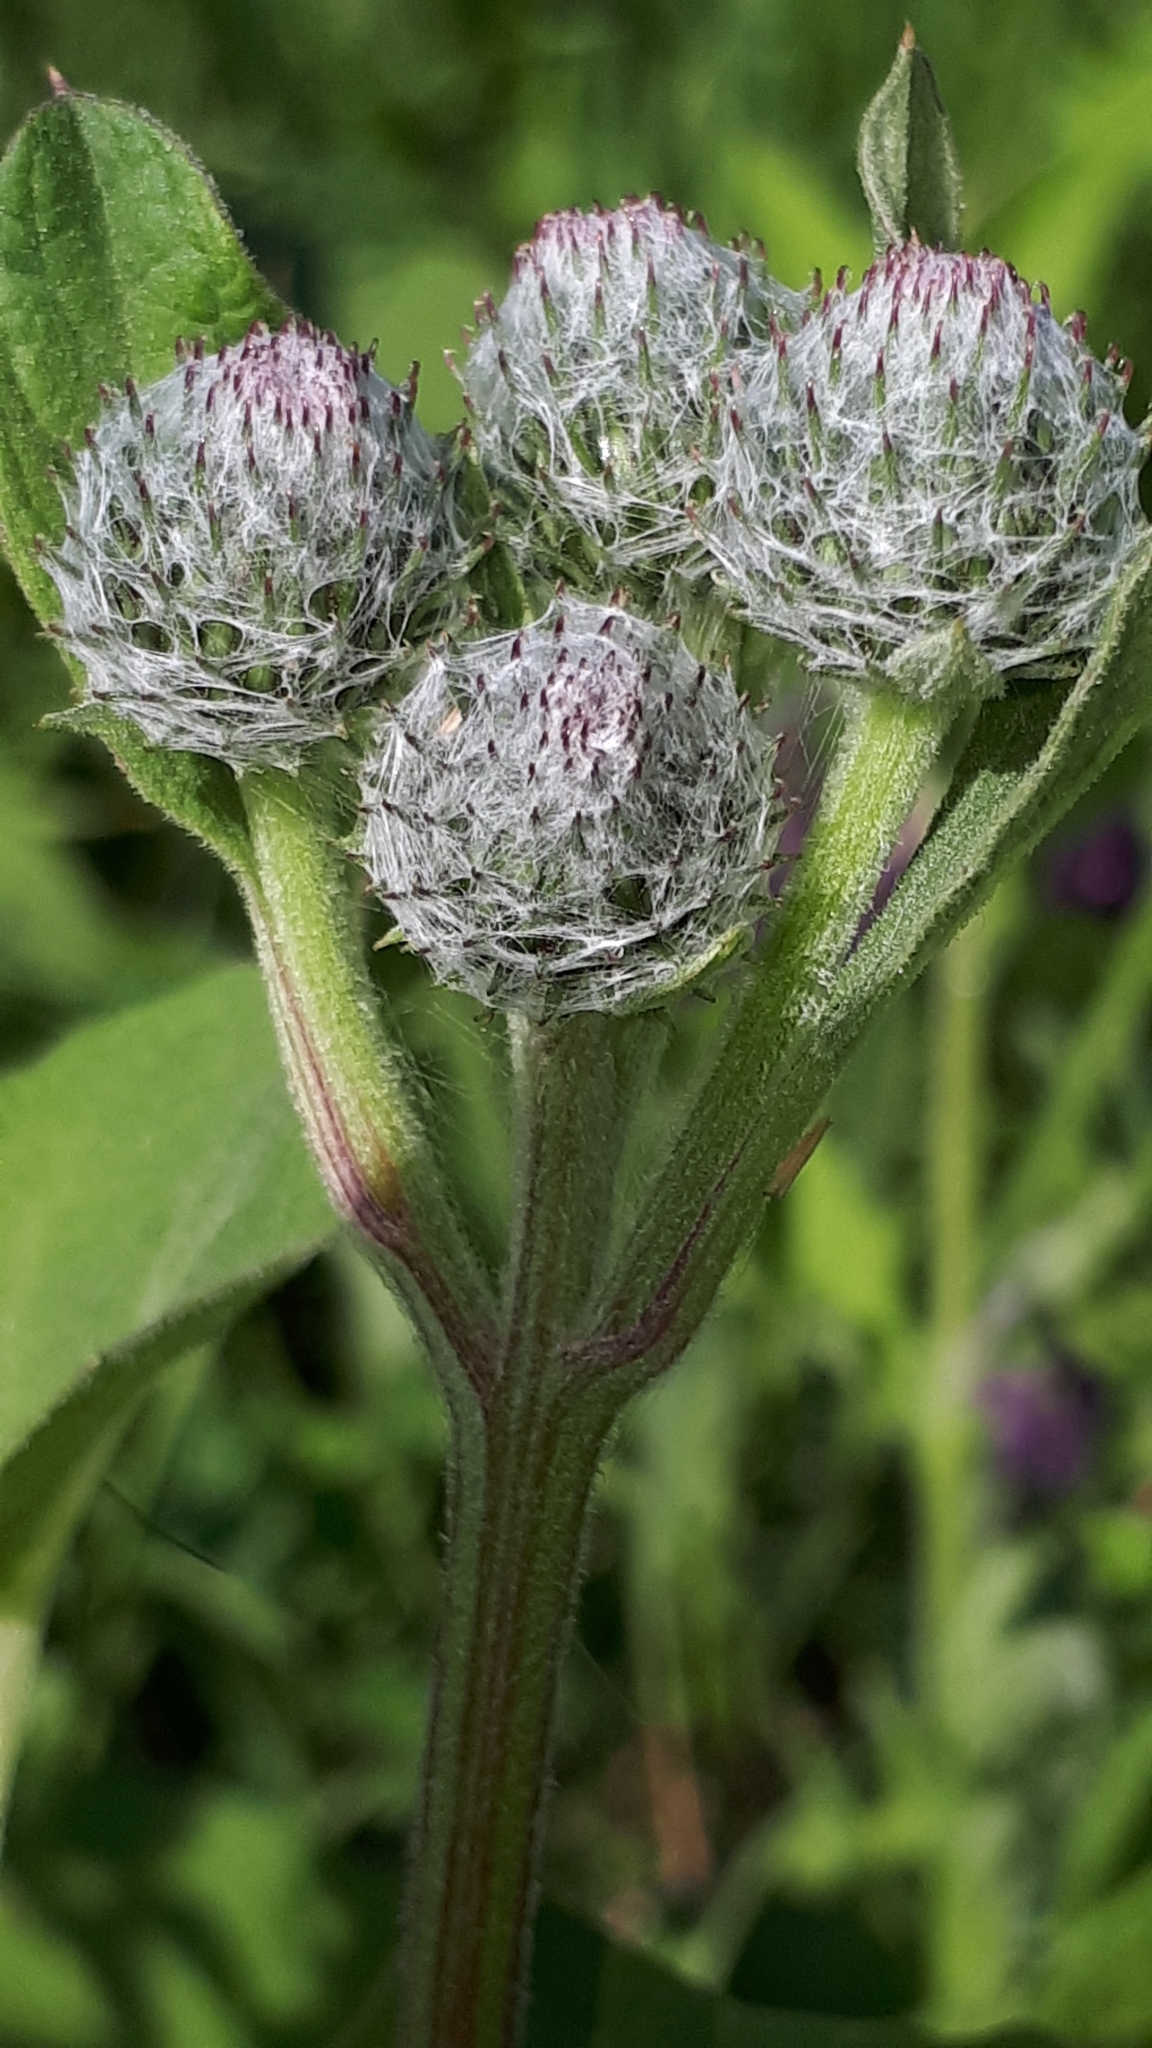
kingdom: Plantae
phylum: Tracheophyta
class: Magnoliopsida
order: Asterales
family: Asteraceae
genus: Arctium
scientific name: Arctium tomentosum
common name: Woolly burdock
